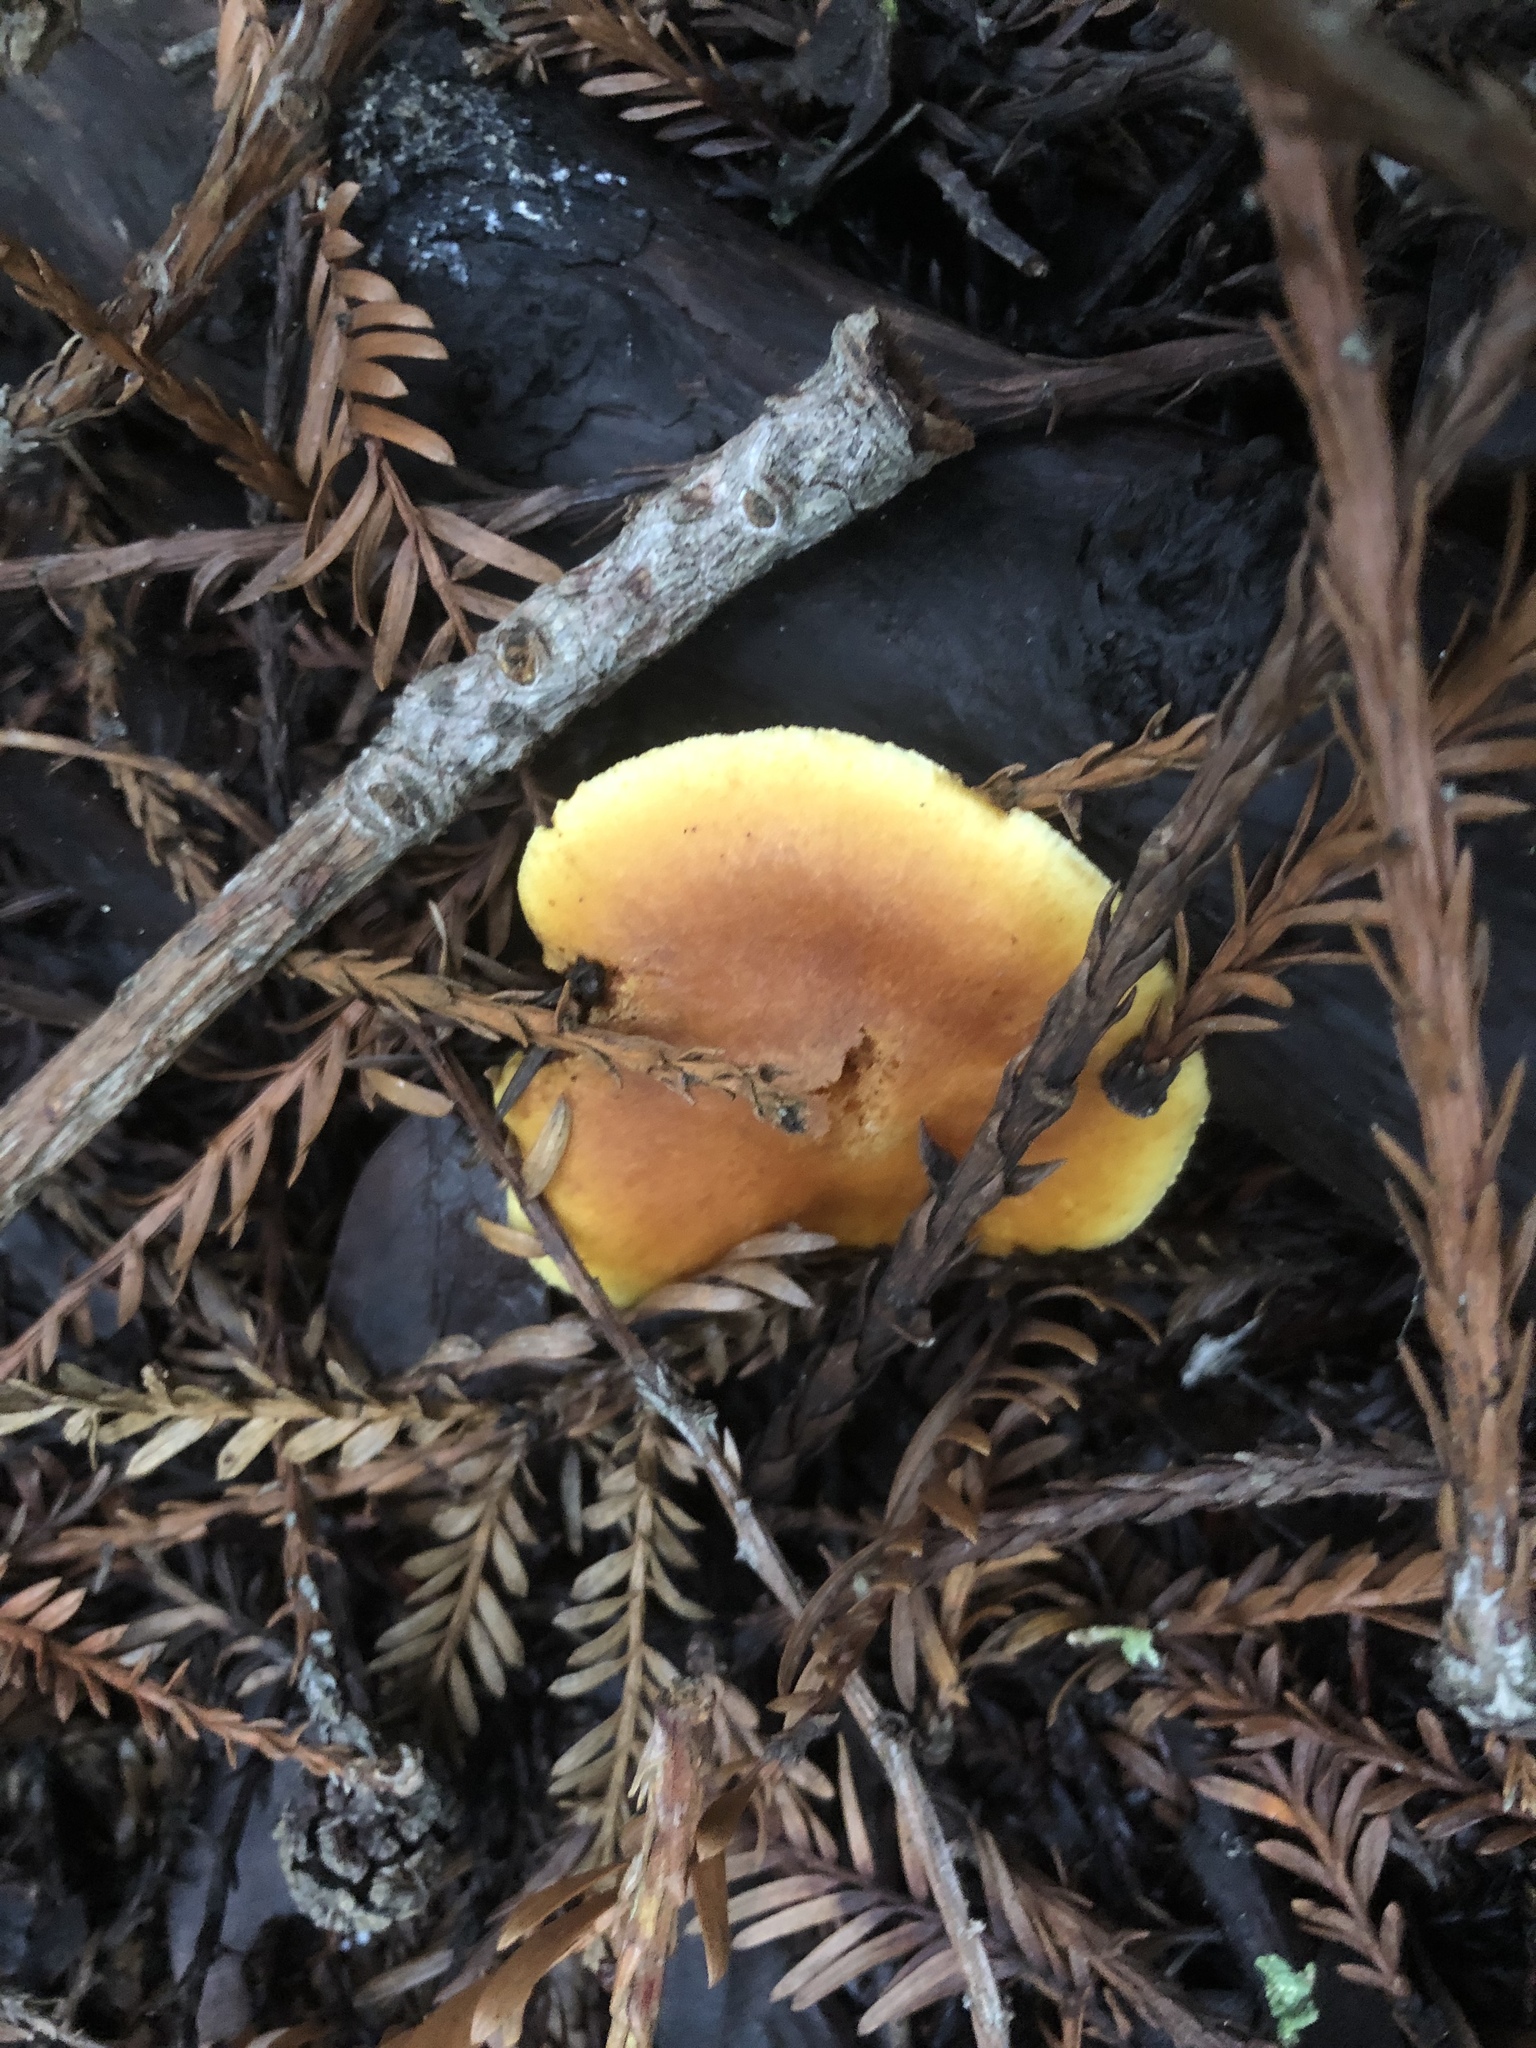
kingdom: Fungi
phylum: Basidiomycota
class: Agaricomycetes
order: Agaricales
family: Hymenogastraceae
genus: Gymnopilus
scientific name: Gymnopilus aurantiophyllus
